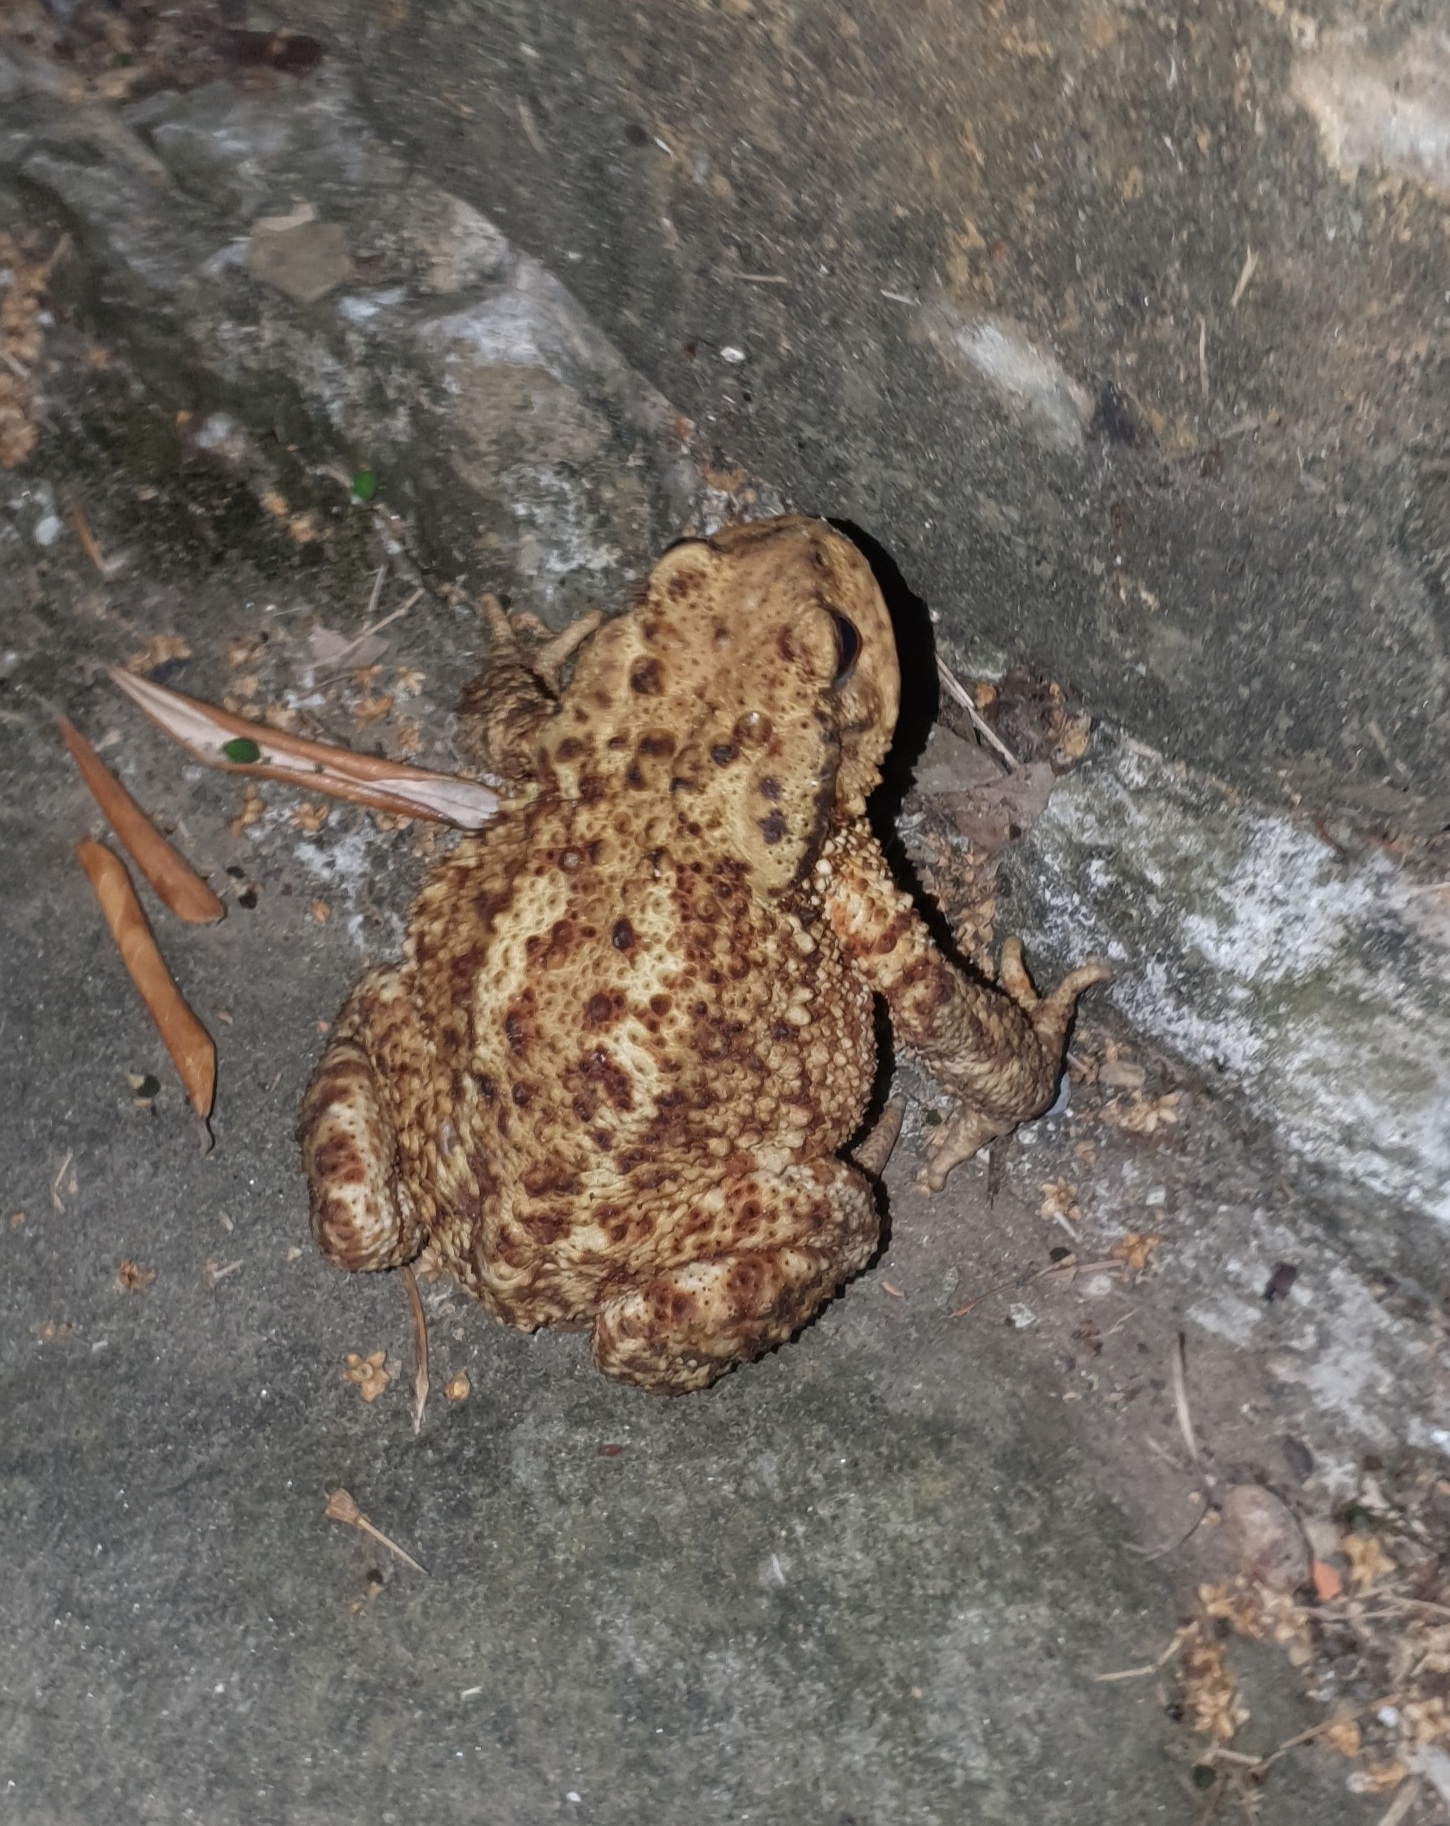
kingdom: Animalia
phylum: Chordata
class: Amphibia
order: Anura
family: Bufonidae
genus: Bufo
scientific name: Bufo bufo
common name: Common toad
